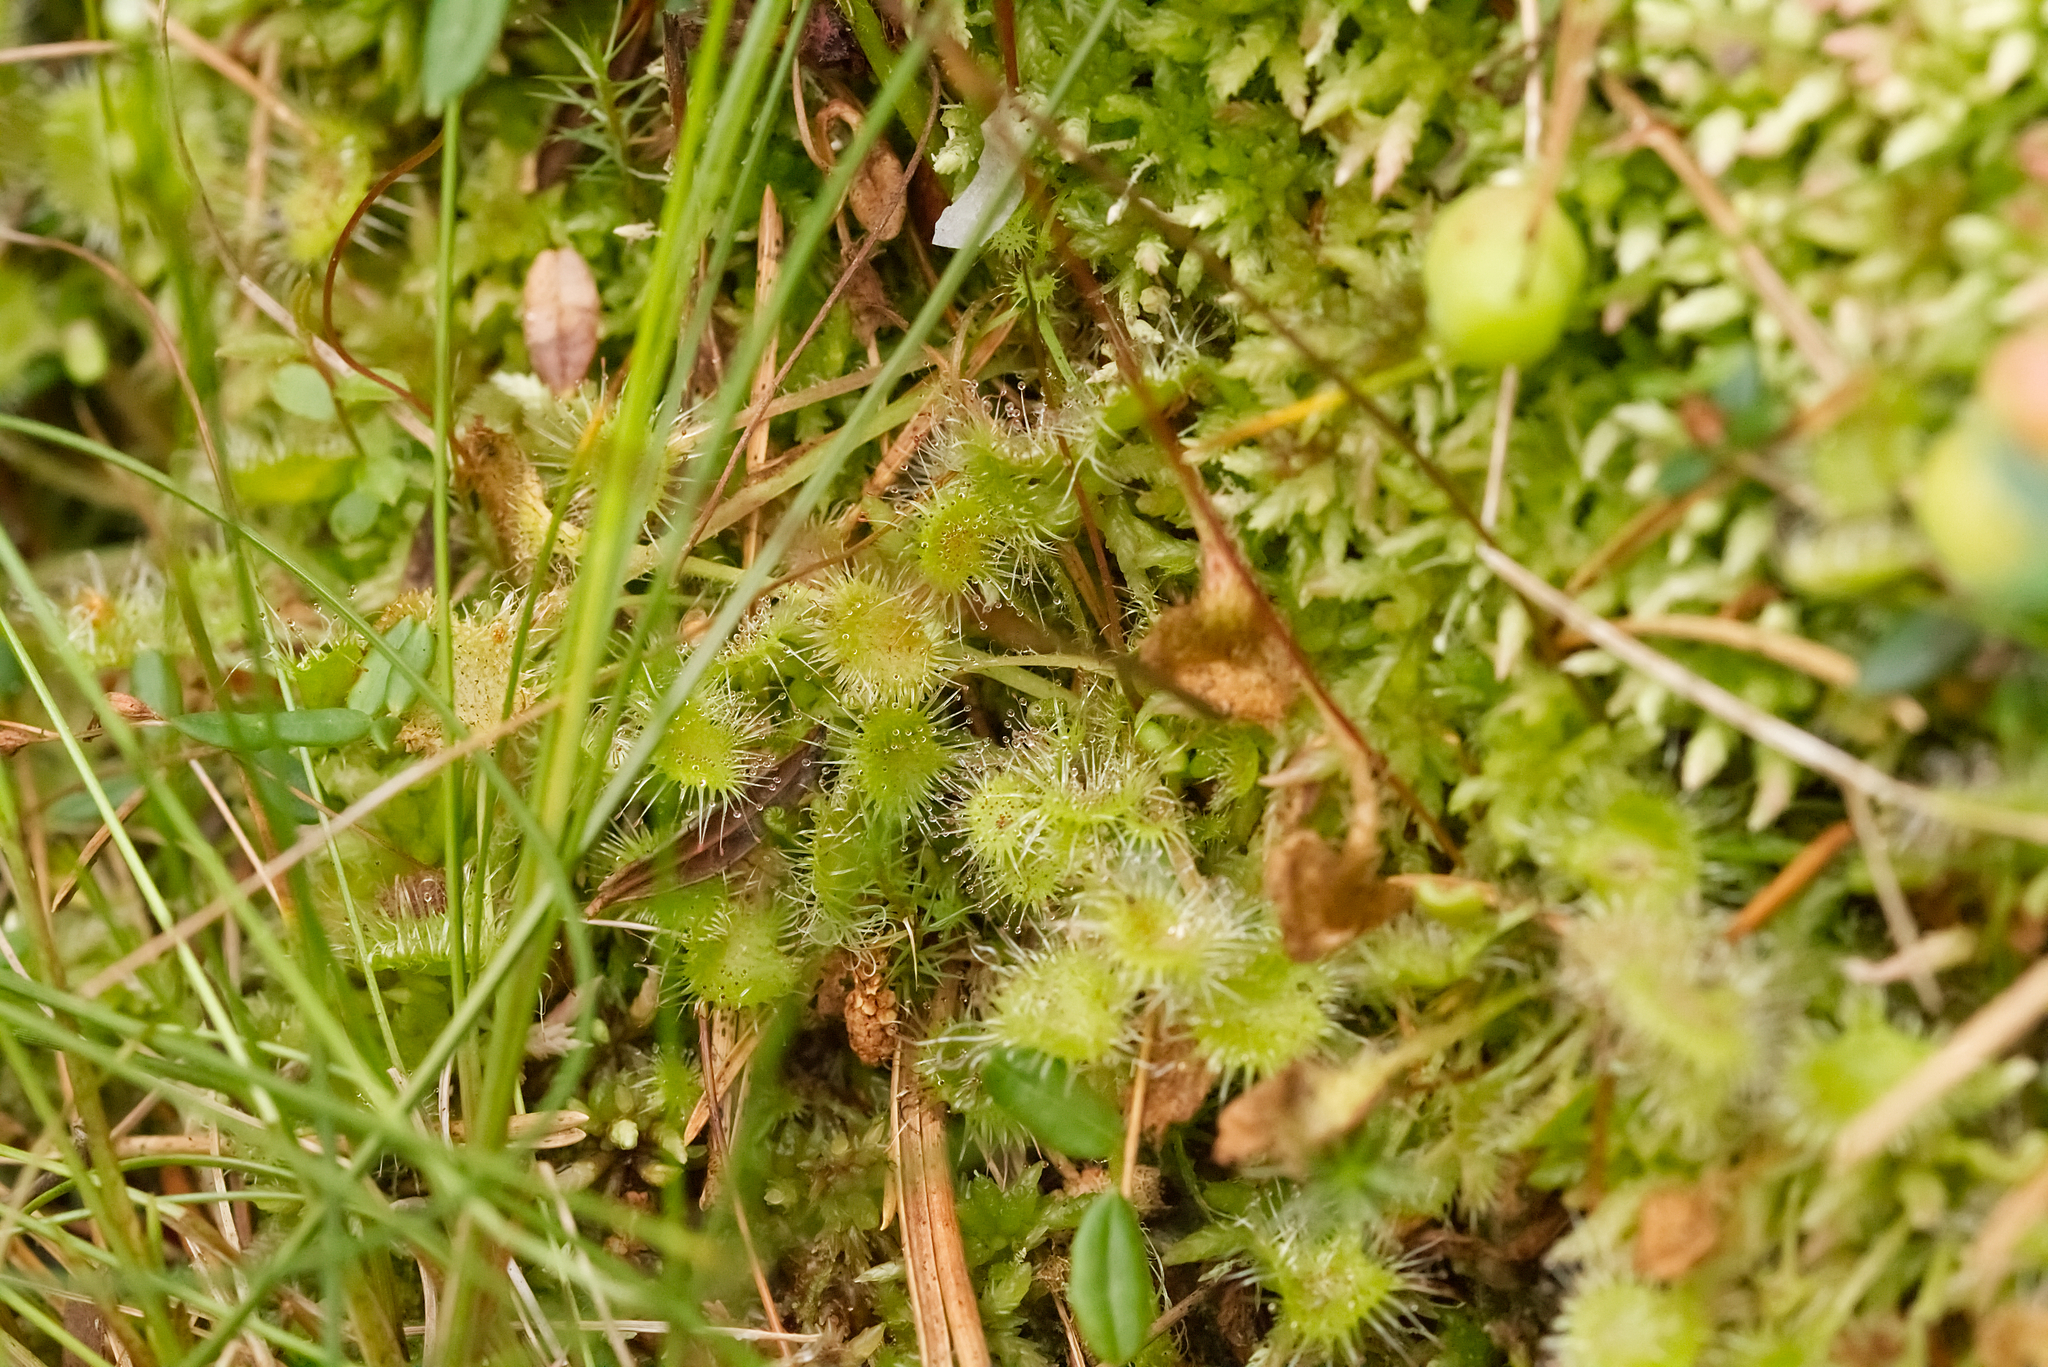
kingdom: Plantae
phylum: Tracheophyta
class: Magnoliopsida
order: Caryophyllales
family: Droseraceae
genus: Drosera
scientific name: Drosera rotundifolia
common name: Round-leaved sundew
